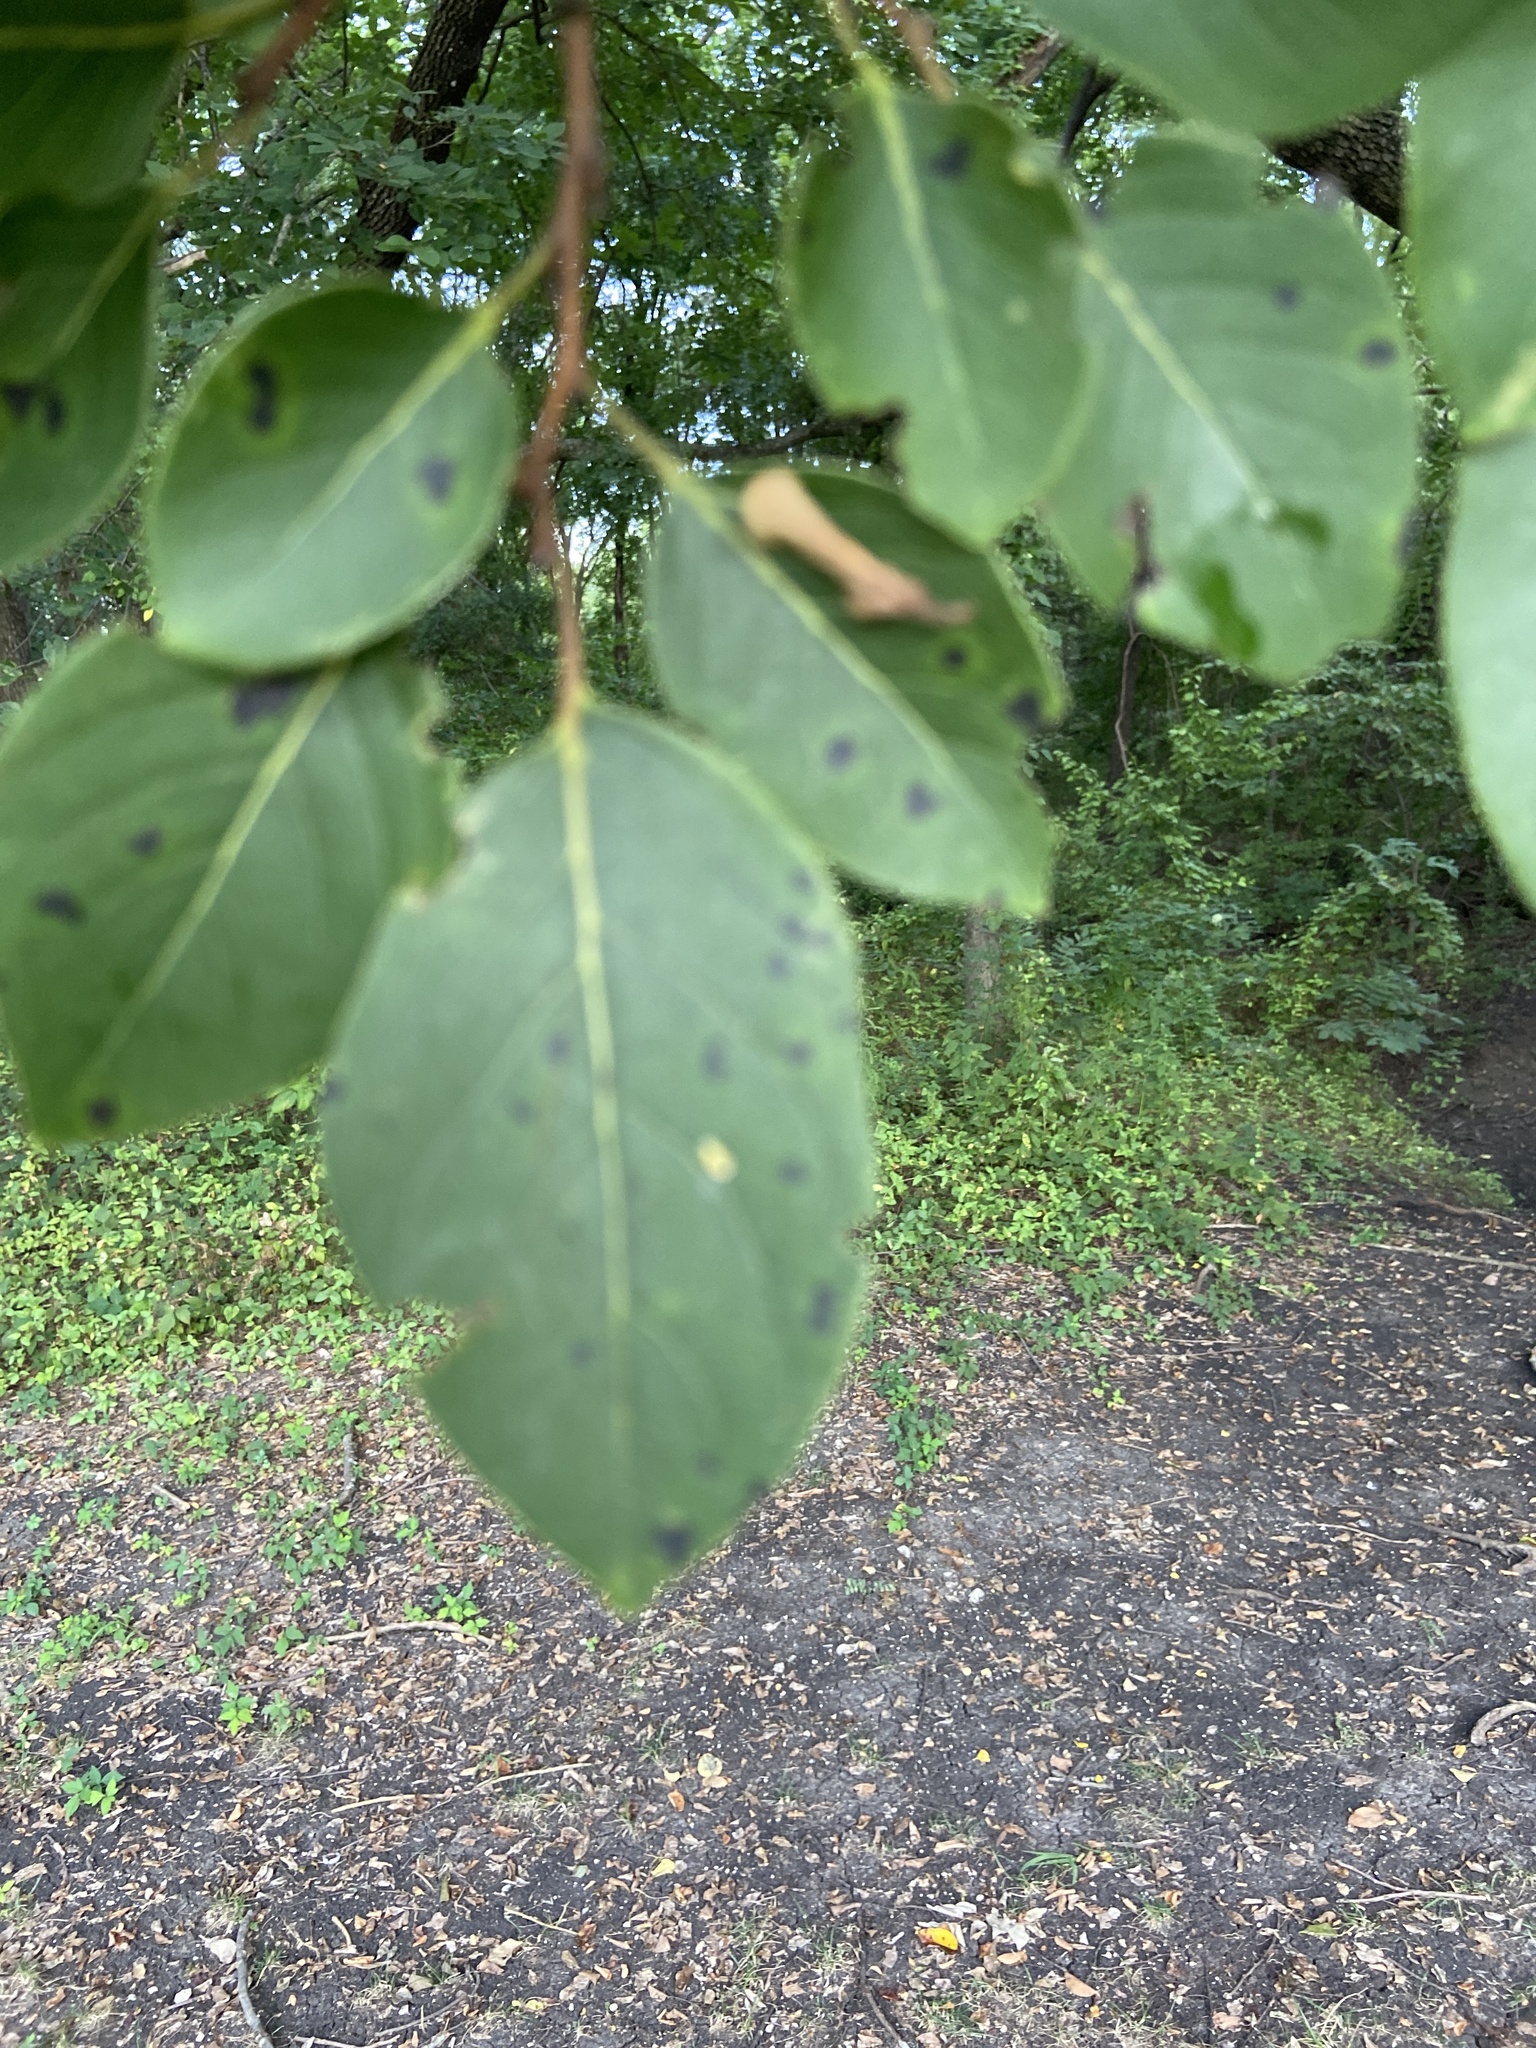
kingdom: Plantae
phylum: Tracheophyta
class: Magnoliopsida
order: Ericales
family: Ebenaceae
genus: Diospyros
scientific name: Diospyros virginiana
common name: Persimmon
